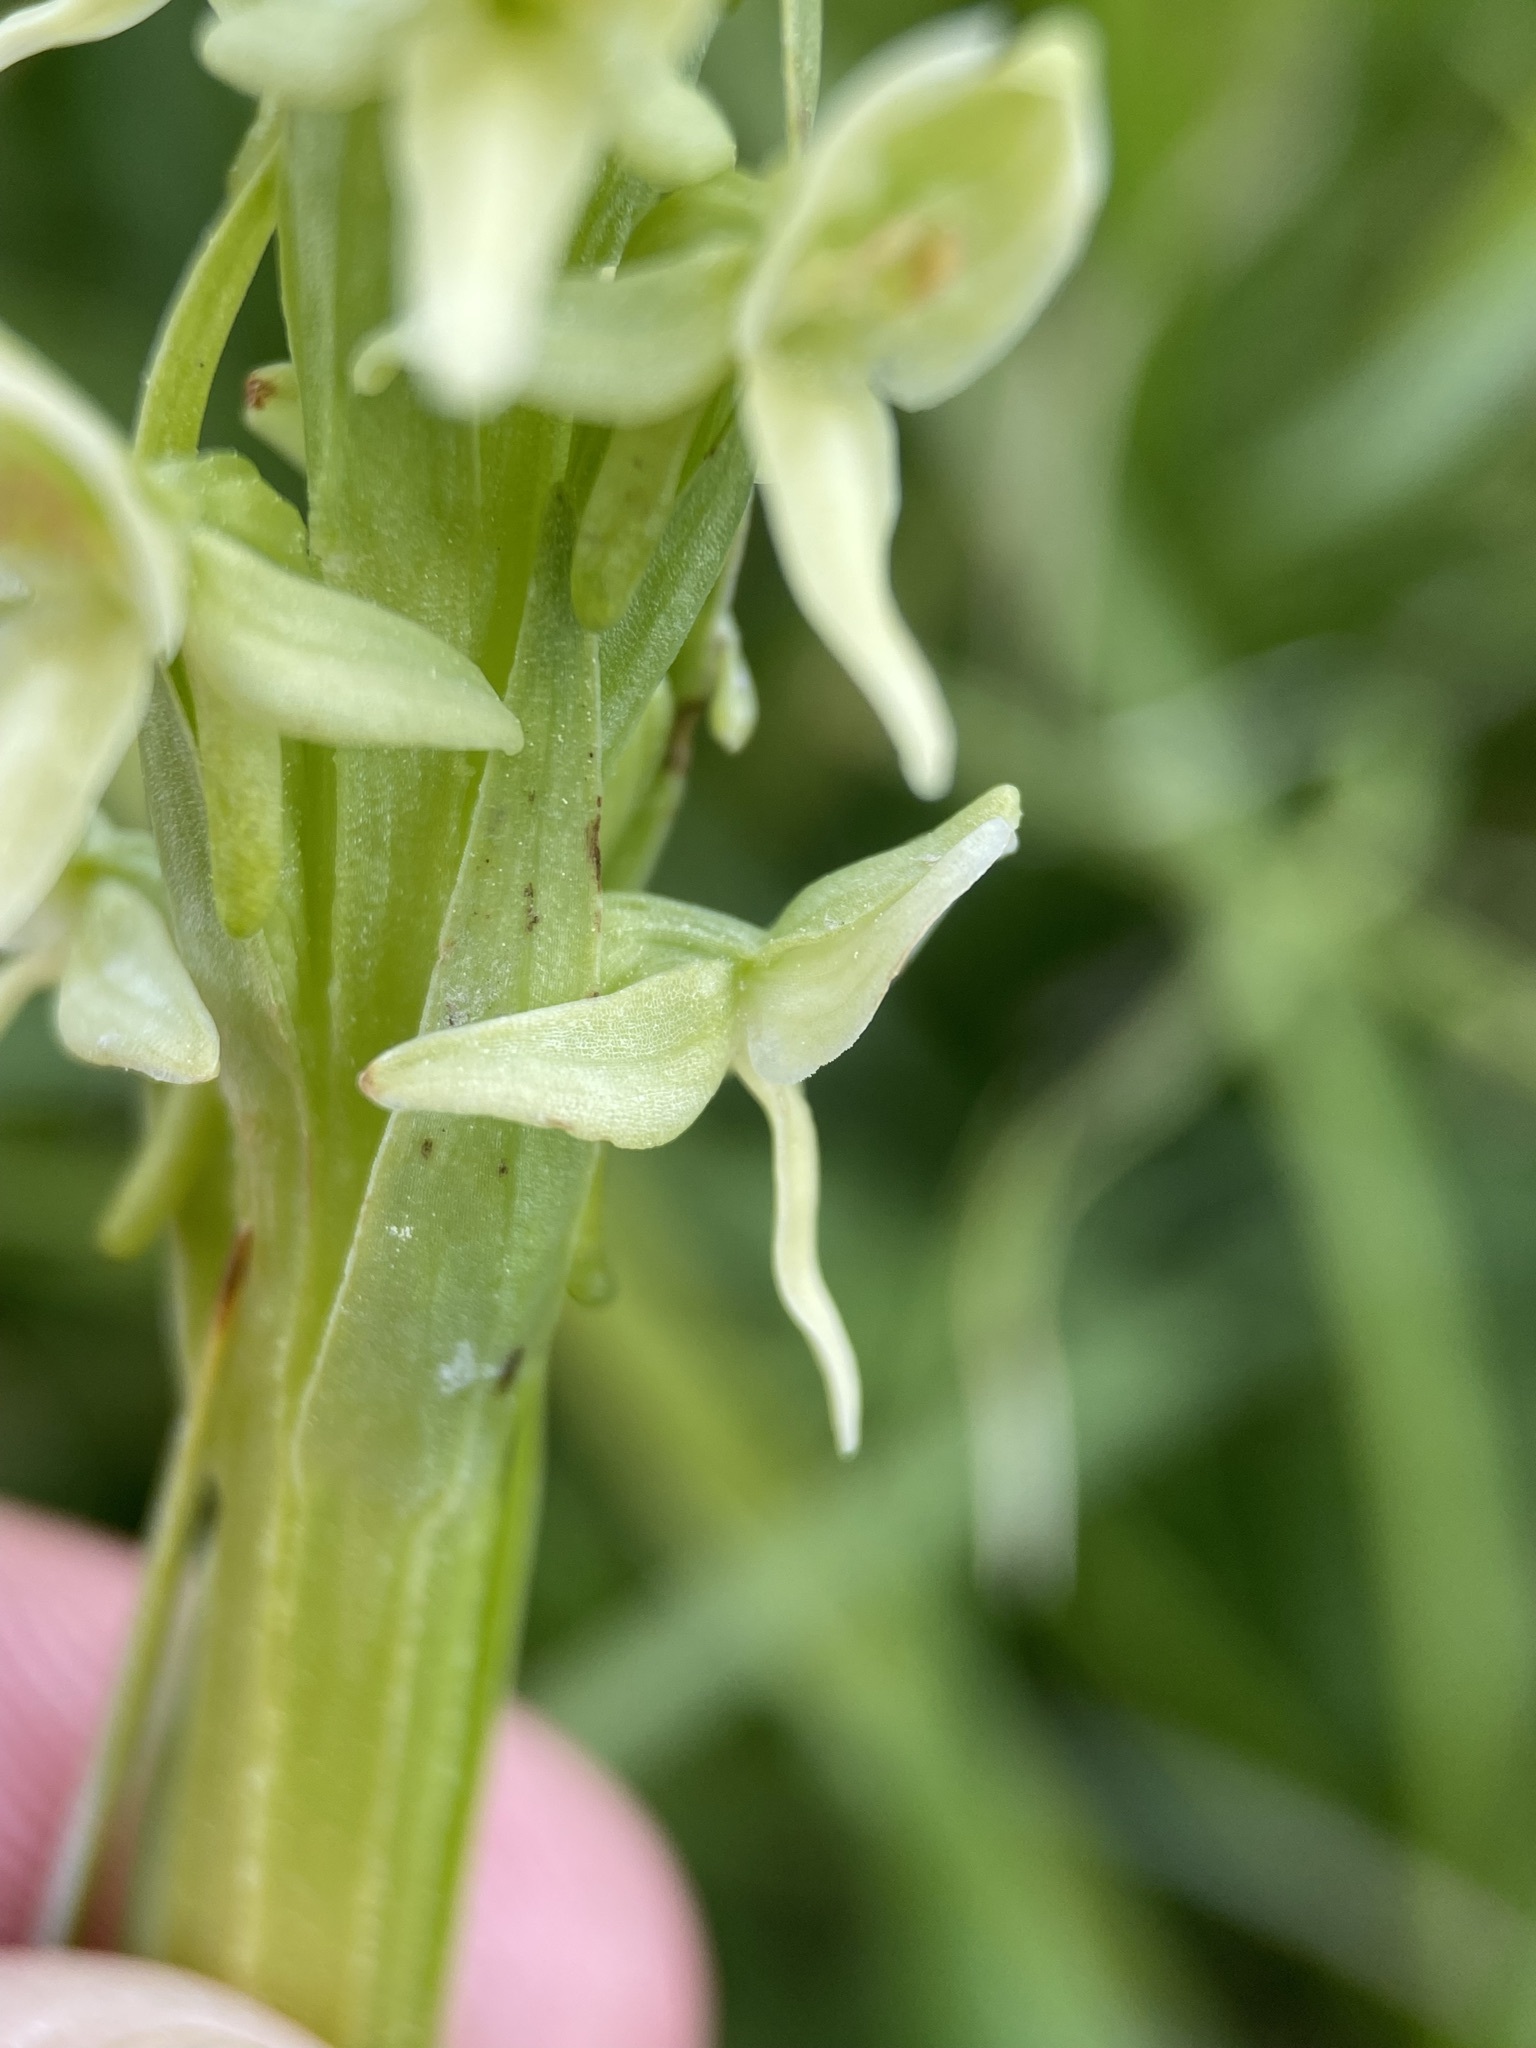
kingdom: Plantae
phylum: Tracheophyta
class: Liliopsida
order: Asparagales
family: Orchidaceae
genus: Platanthera
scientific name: Platanthera huronensis
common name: Fragrant green orchid
